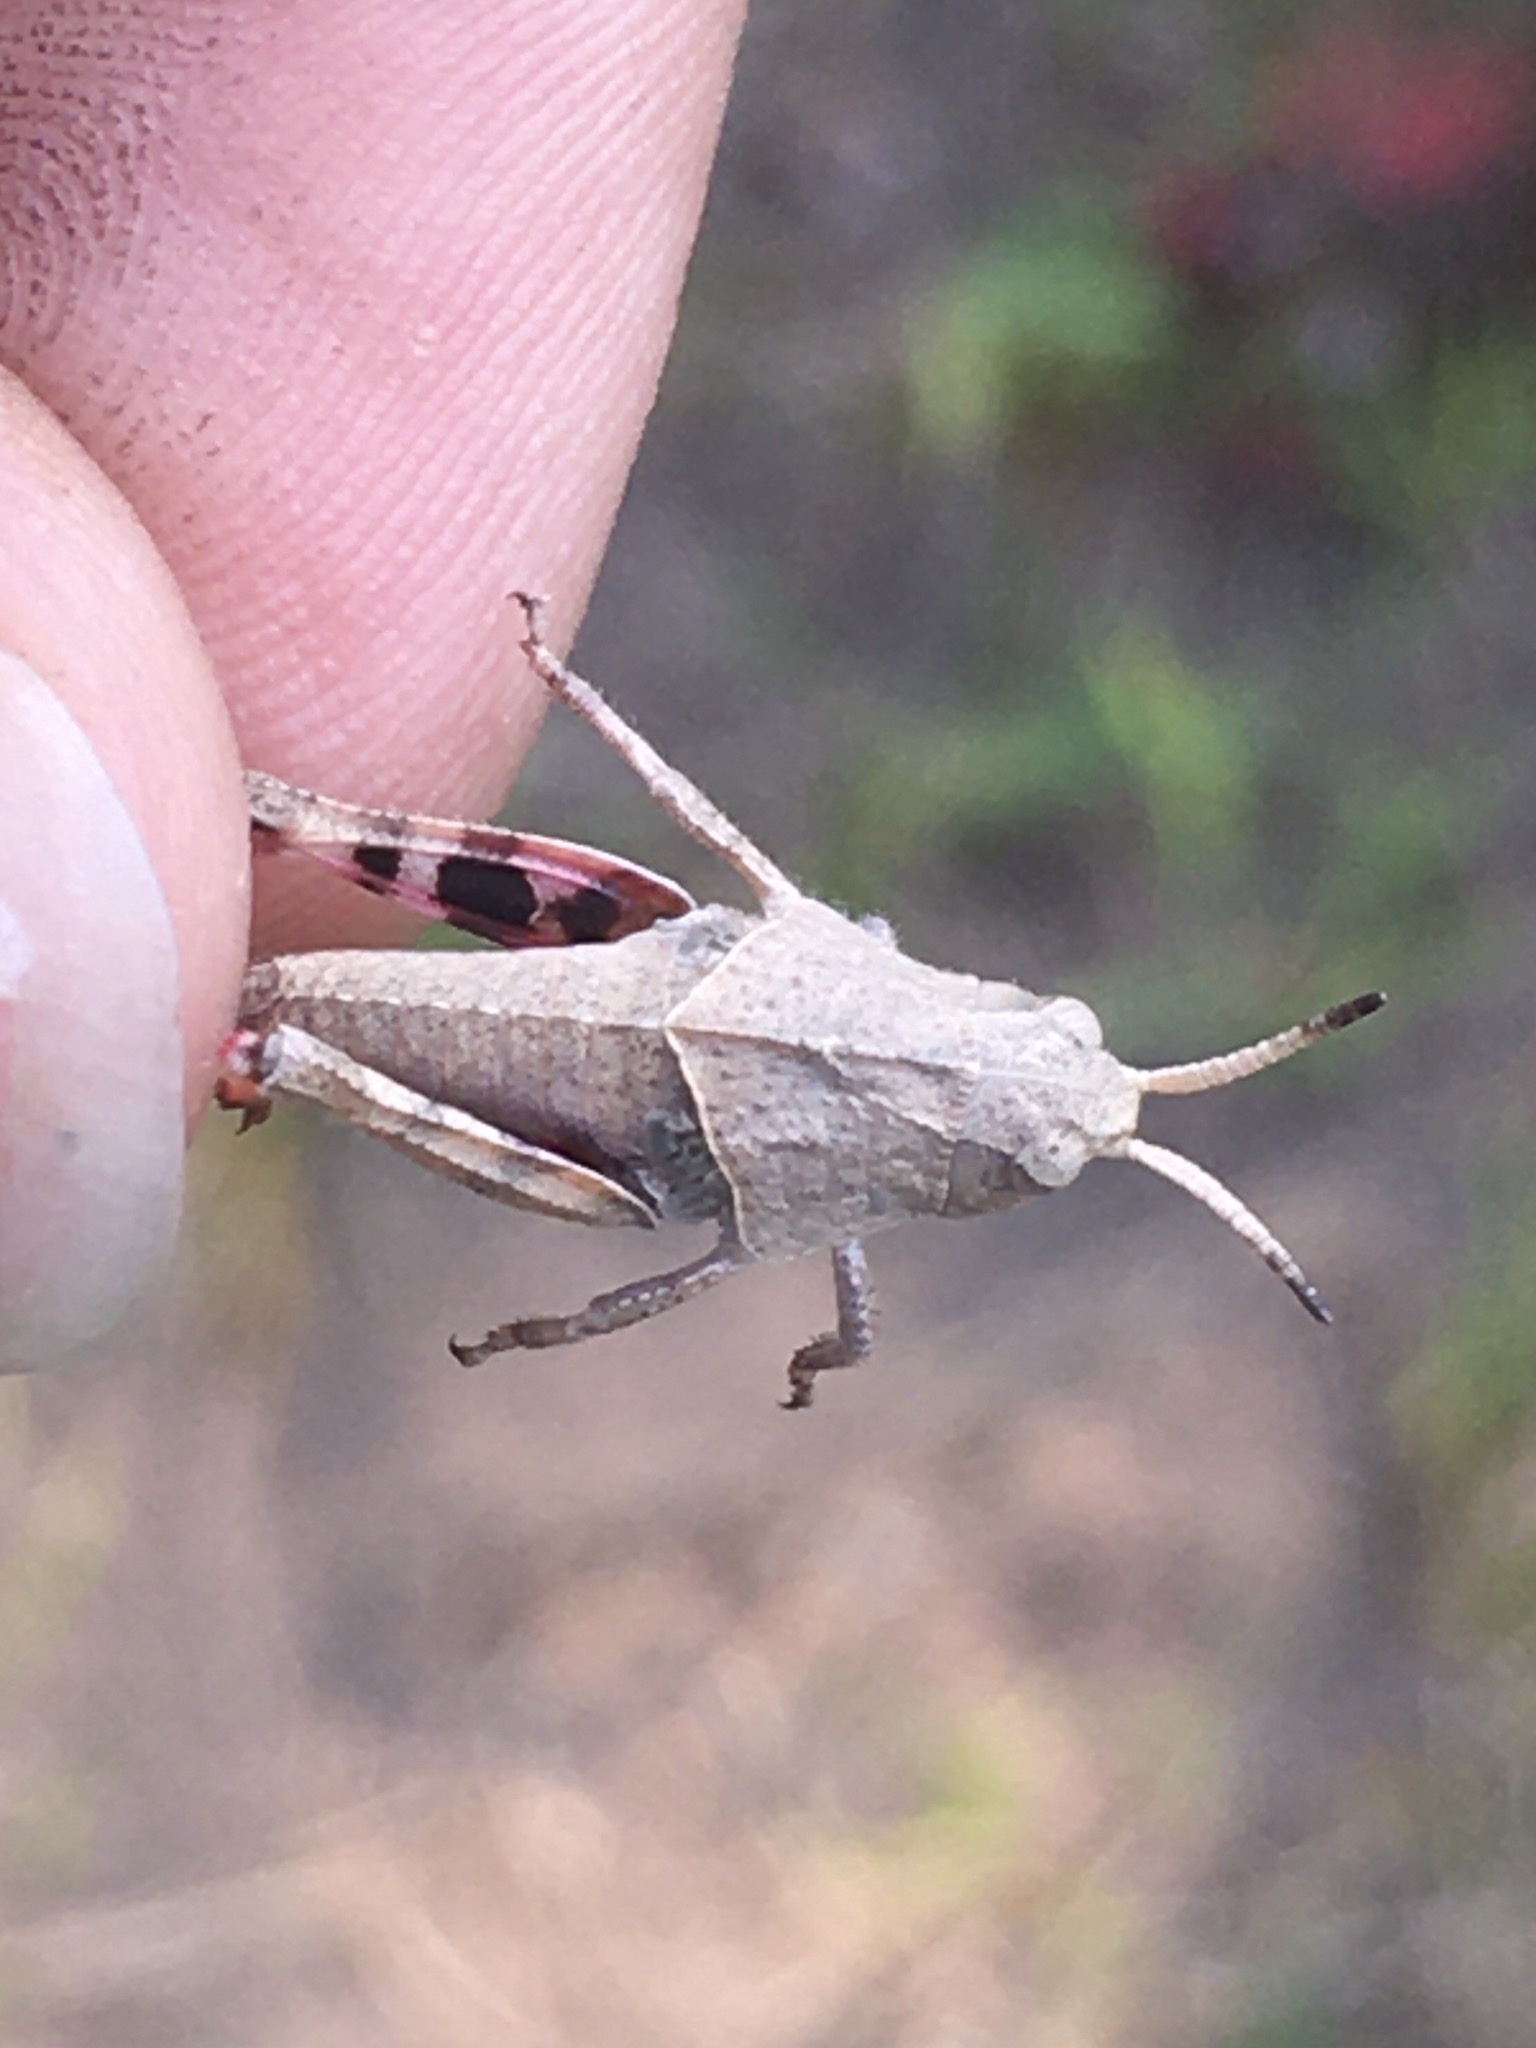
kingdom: Animalia
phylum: Arthropoda
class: Insecta
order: Orthoptera
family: Acrididae
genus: Pardalophora
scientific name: Pardalophora apiculata
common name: Coral-winged locust
